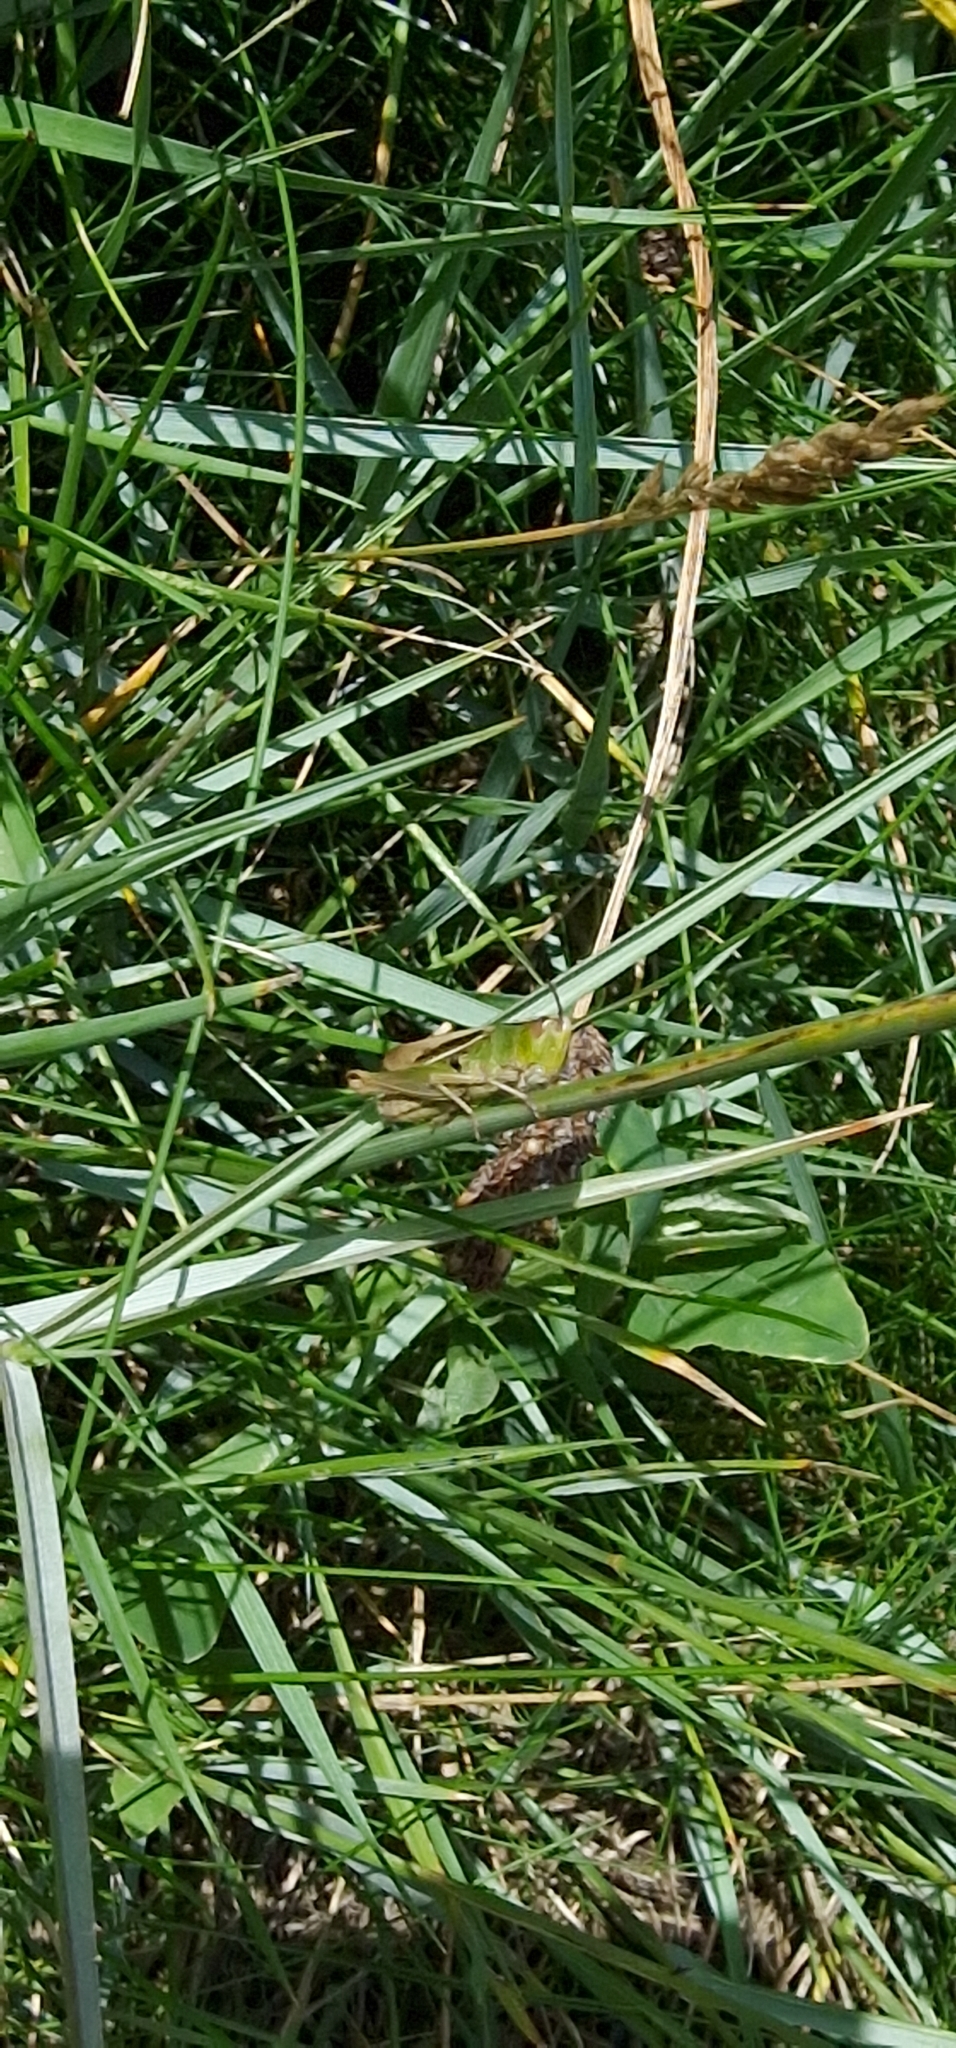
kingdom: Animalia
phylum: Arthropoda
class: Insecta
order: Orthoptera
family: Acrididae
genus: Chorthippus
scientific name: Chorthippus albomarginatus
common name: Lesser marsh grasshopper
